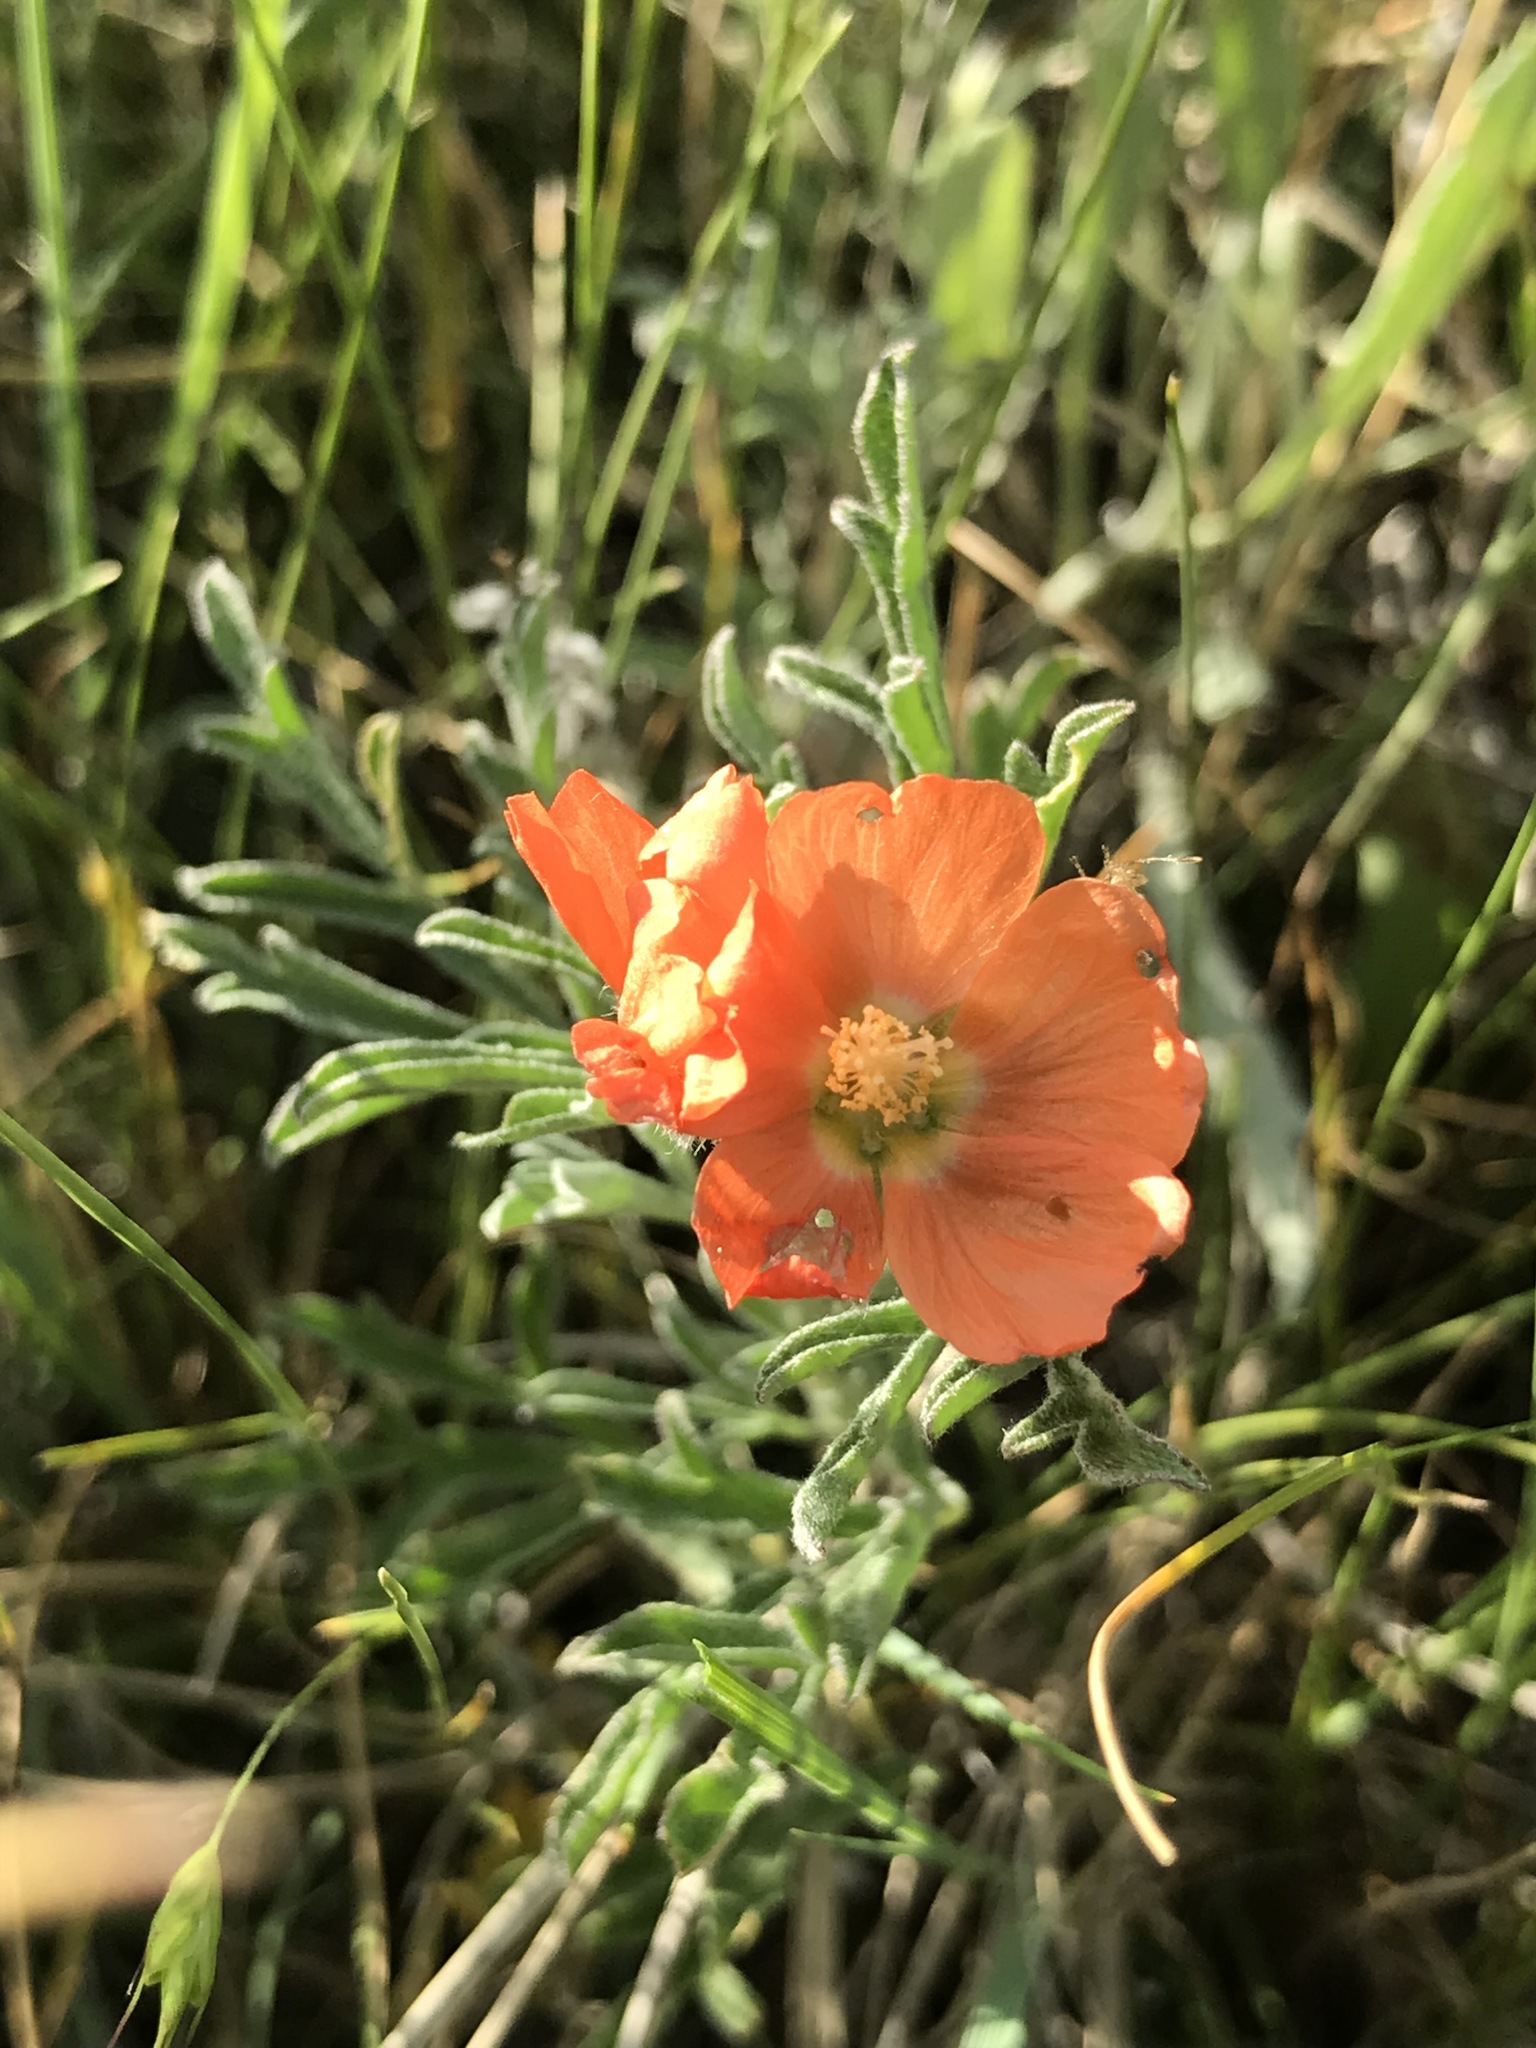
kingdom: Plantae
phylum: Tracheophyta
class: Magnoliopsida
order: Malvales
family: Malvaceae
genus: Sphaeralcea
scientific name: Sphaeralcea coccinea
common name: Moss-rose
